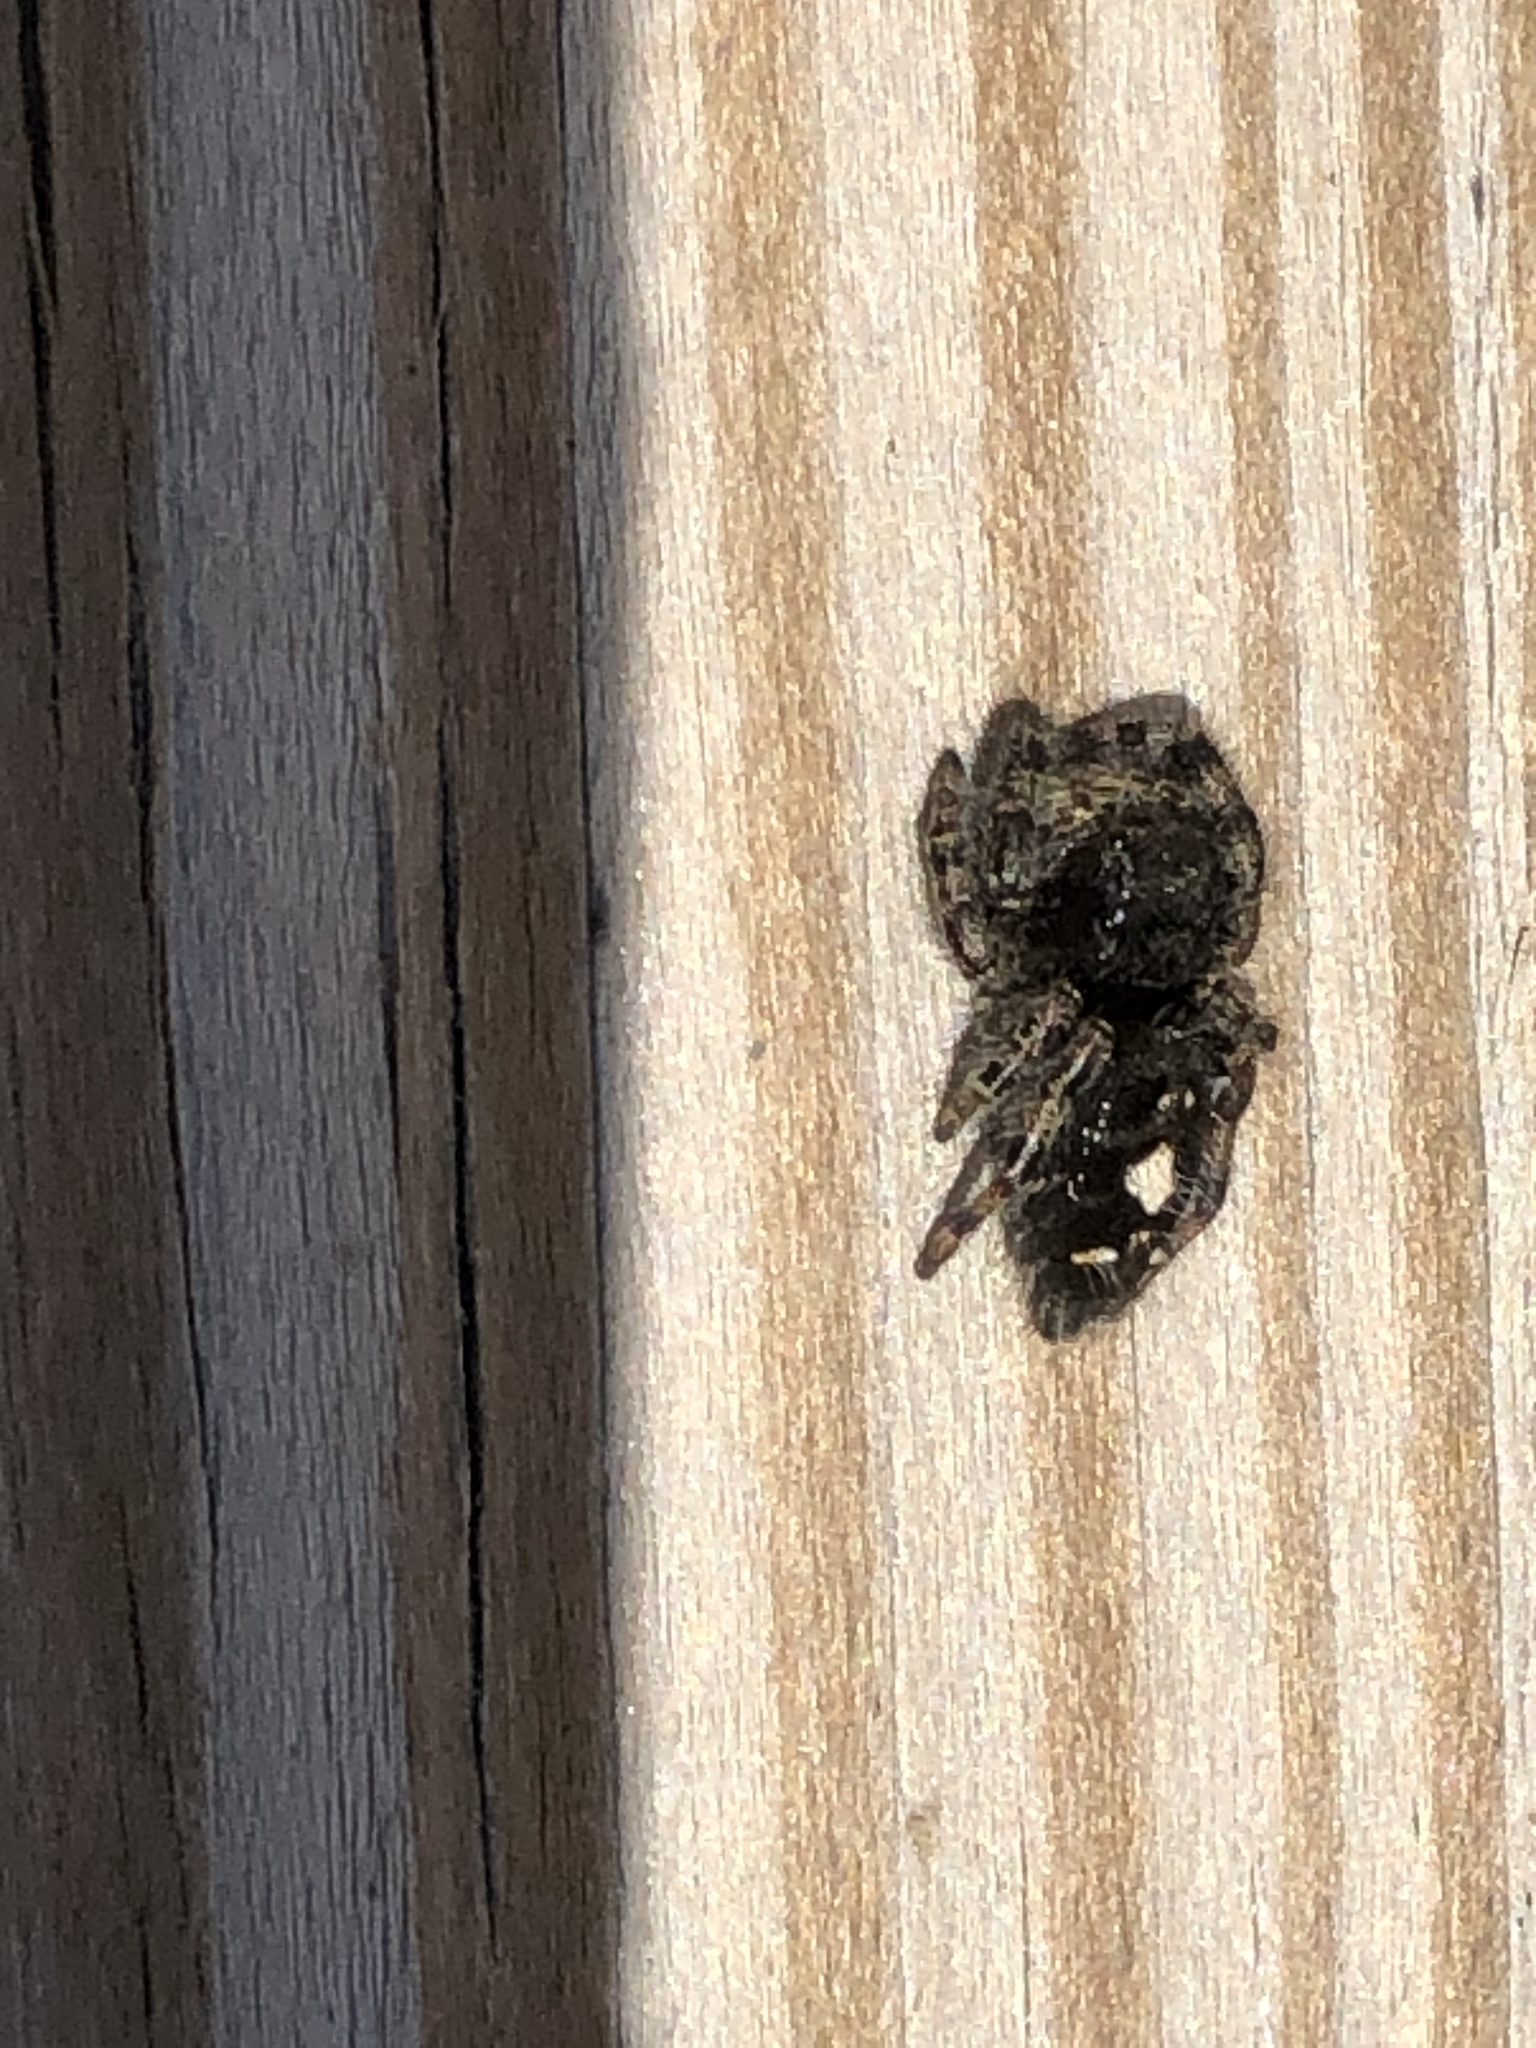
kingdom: Animalia
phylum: Arthropoda
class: Arachnida
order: Araneae
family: Salticidae
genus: Phidippus
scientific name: Phidippus audax
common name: Bold jumper
